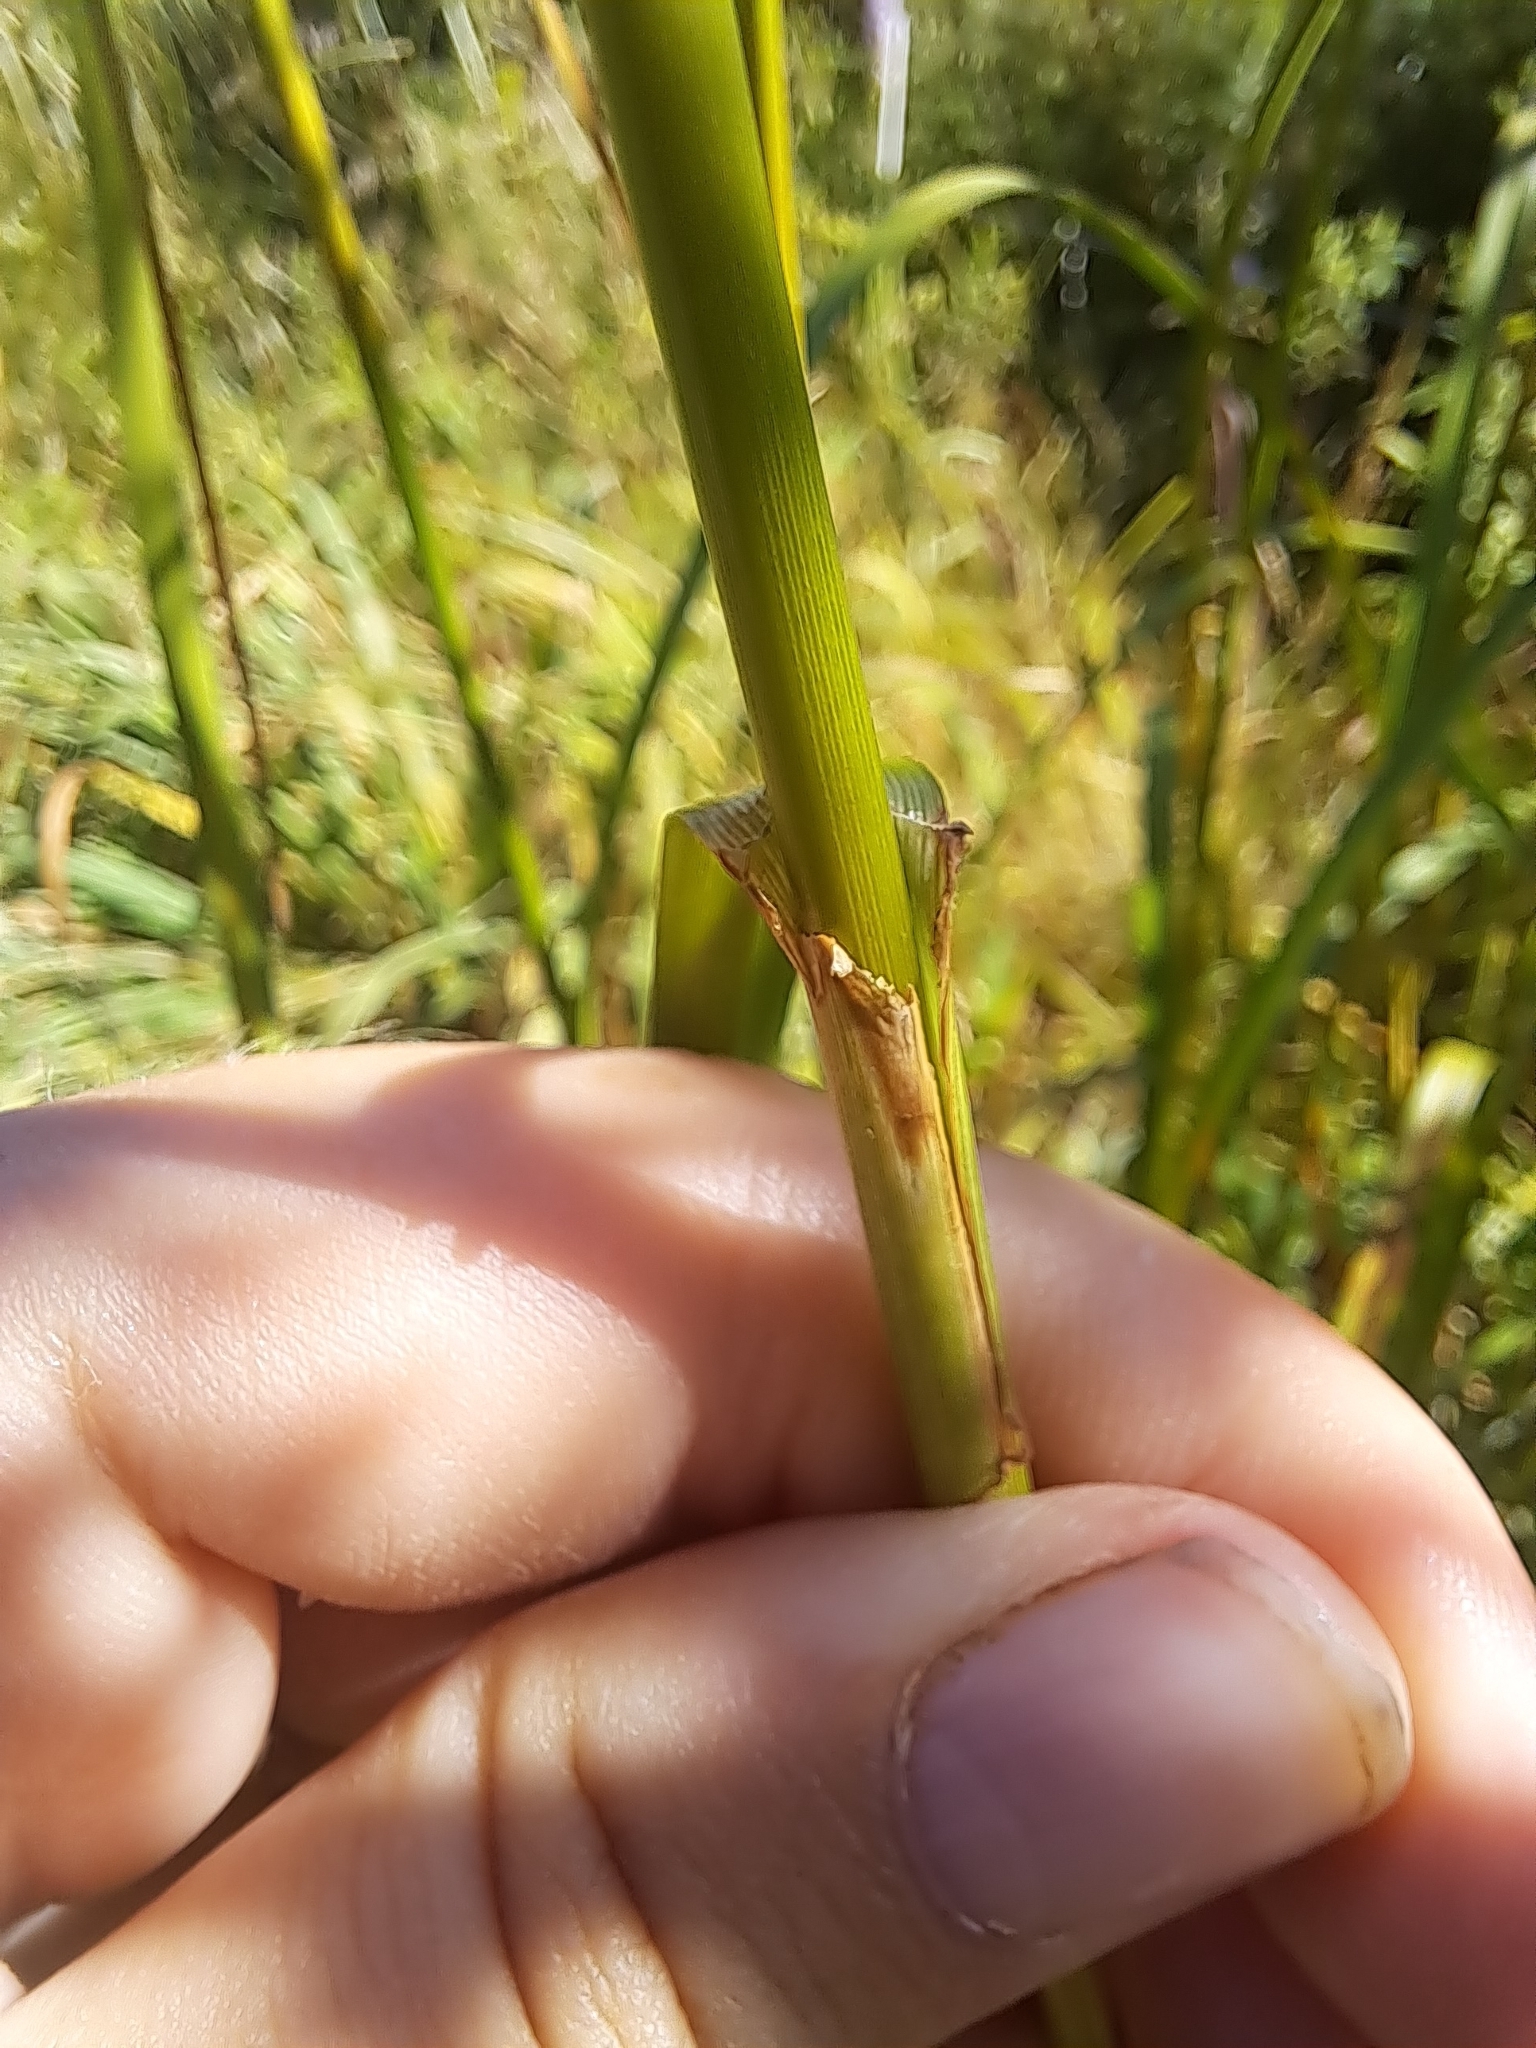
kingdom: Plantae
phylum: Tracheophyta
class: Liliopsida
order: Poales
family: Cyperaceae
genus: Scirpus
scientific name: Scirpus atrocinctus
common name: Black-girdled bulrush
